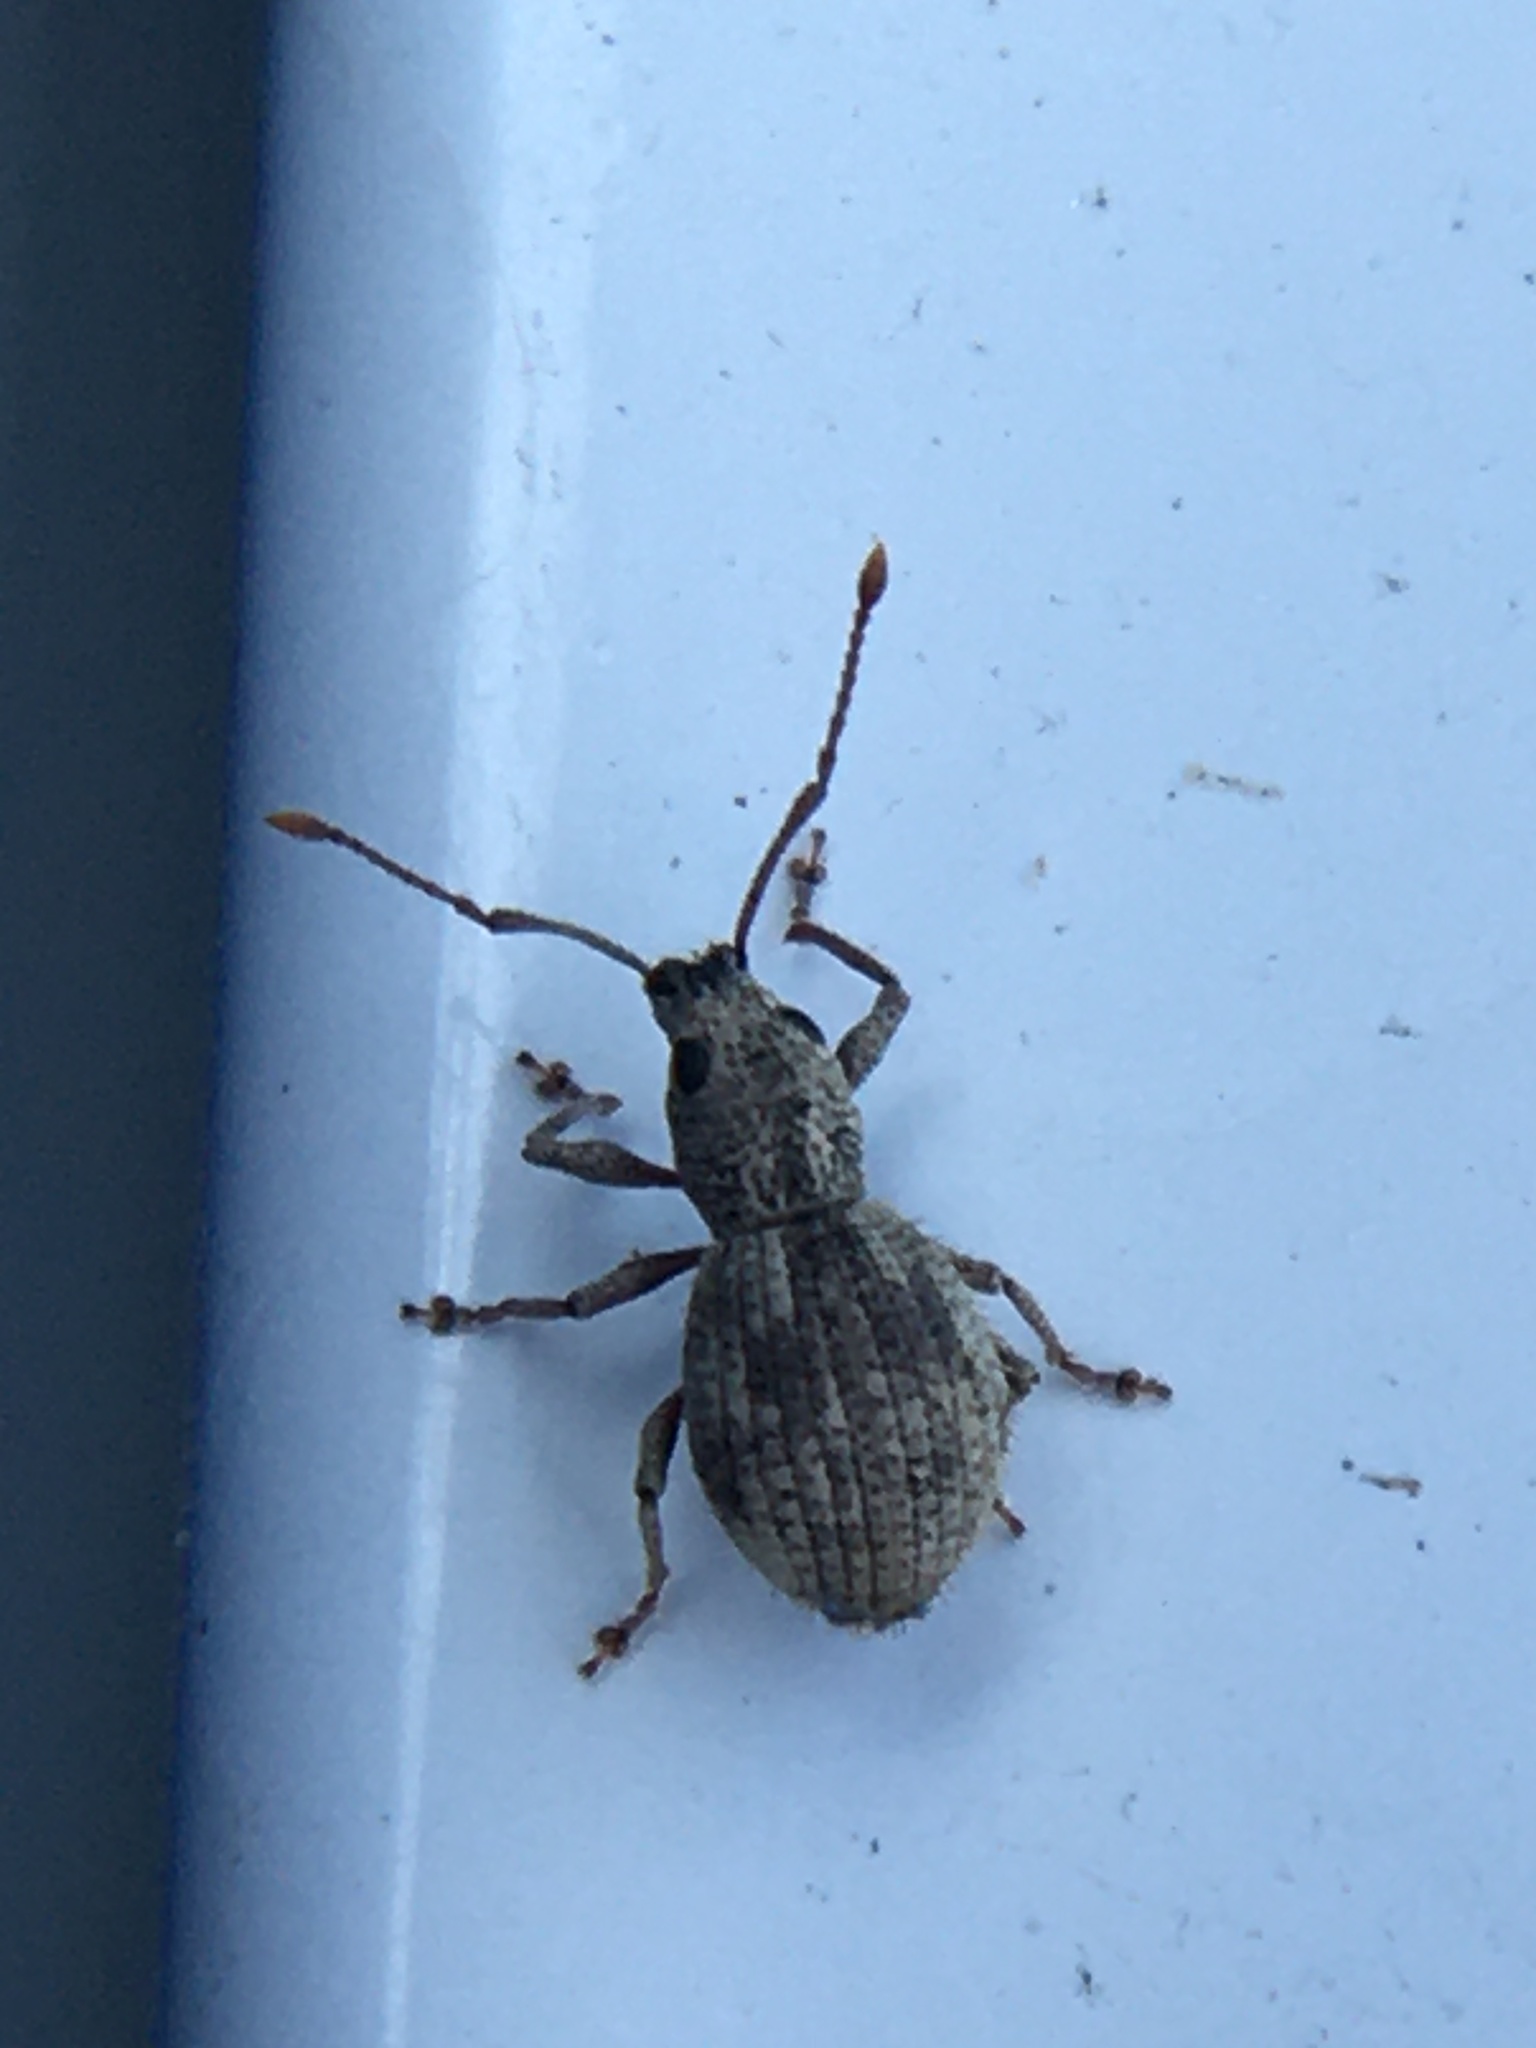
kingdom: Animalia
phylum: Arthropoda
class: Insecta
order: Coleoptera
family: Curculionidae
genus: Calomycterus
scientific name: Calomycterus setarius
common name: Weevil
